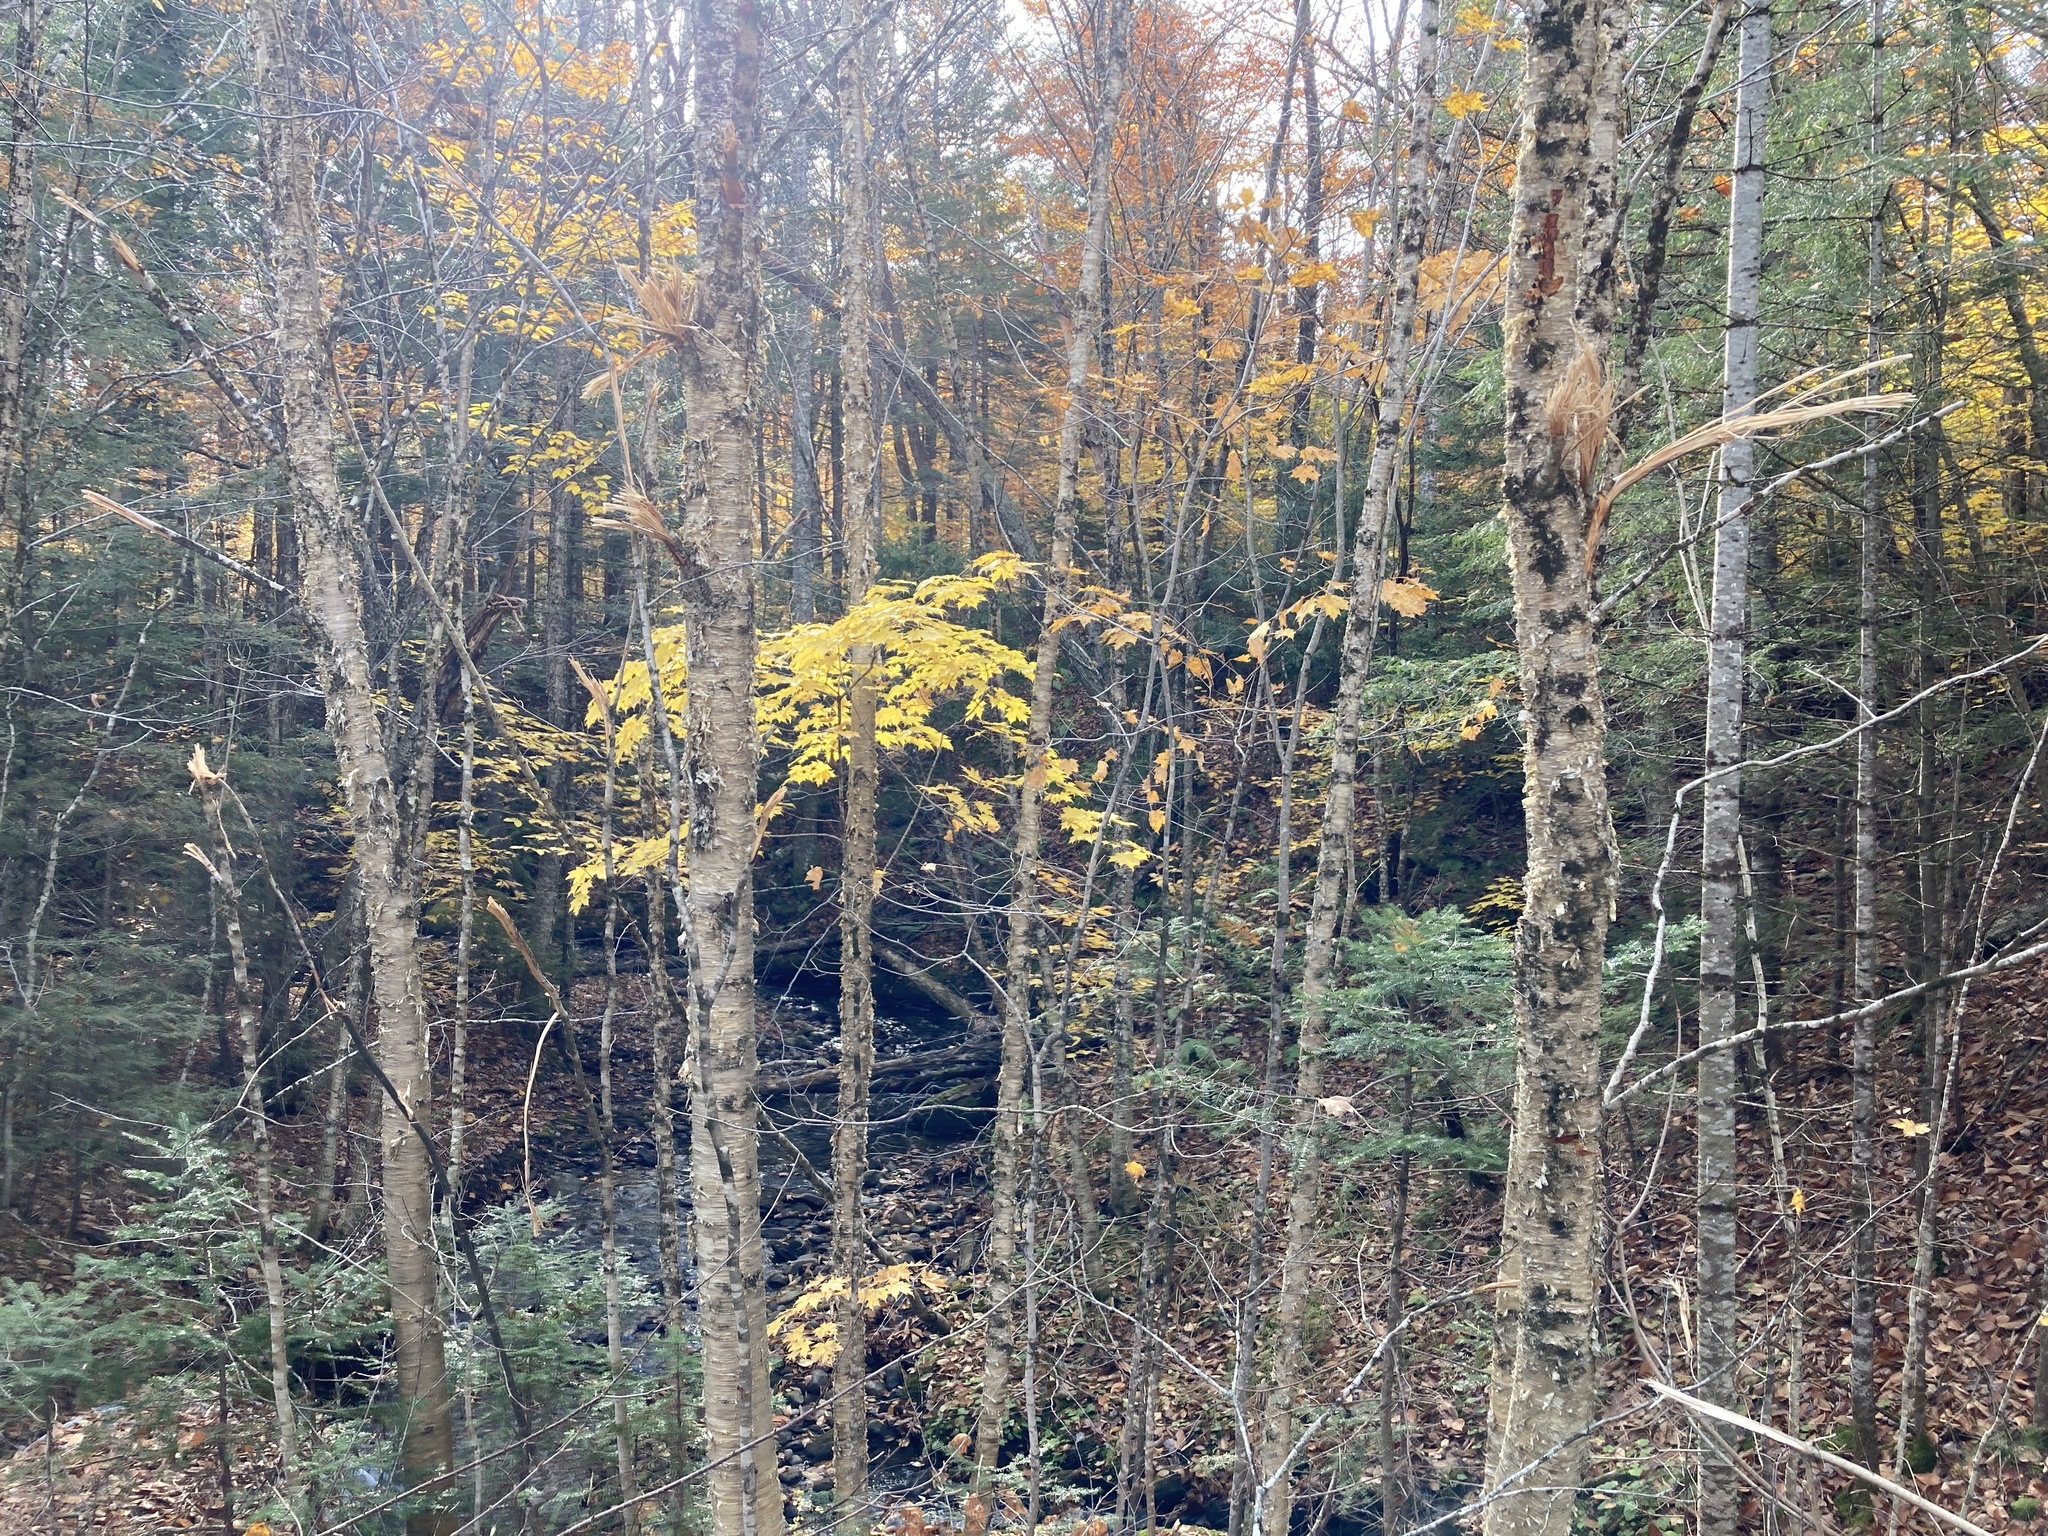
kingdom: Plantae
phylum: Tracheophyta
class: Magnoliopsida
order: Sapindales
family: Sapindaceae
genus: Acer
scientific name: Acer saccharum
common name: Sugar maple
